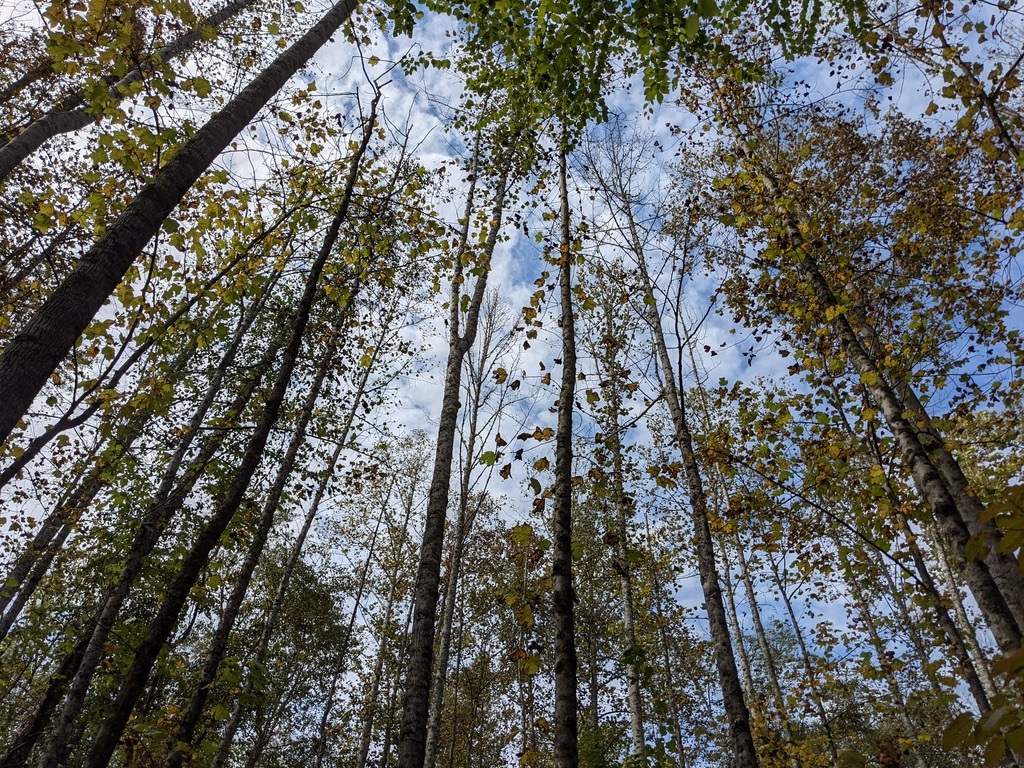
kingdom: Plantae
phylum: Tracheophyta
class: Magnoliopsida
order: Magnoliales
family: Magnoliaceae
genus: Liriodendron
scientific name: Liriodendron tulipifera
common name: Tulip tree
